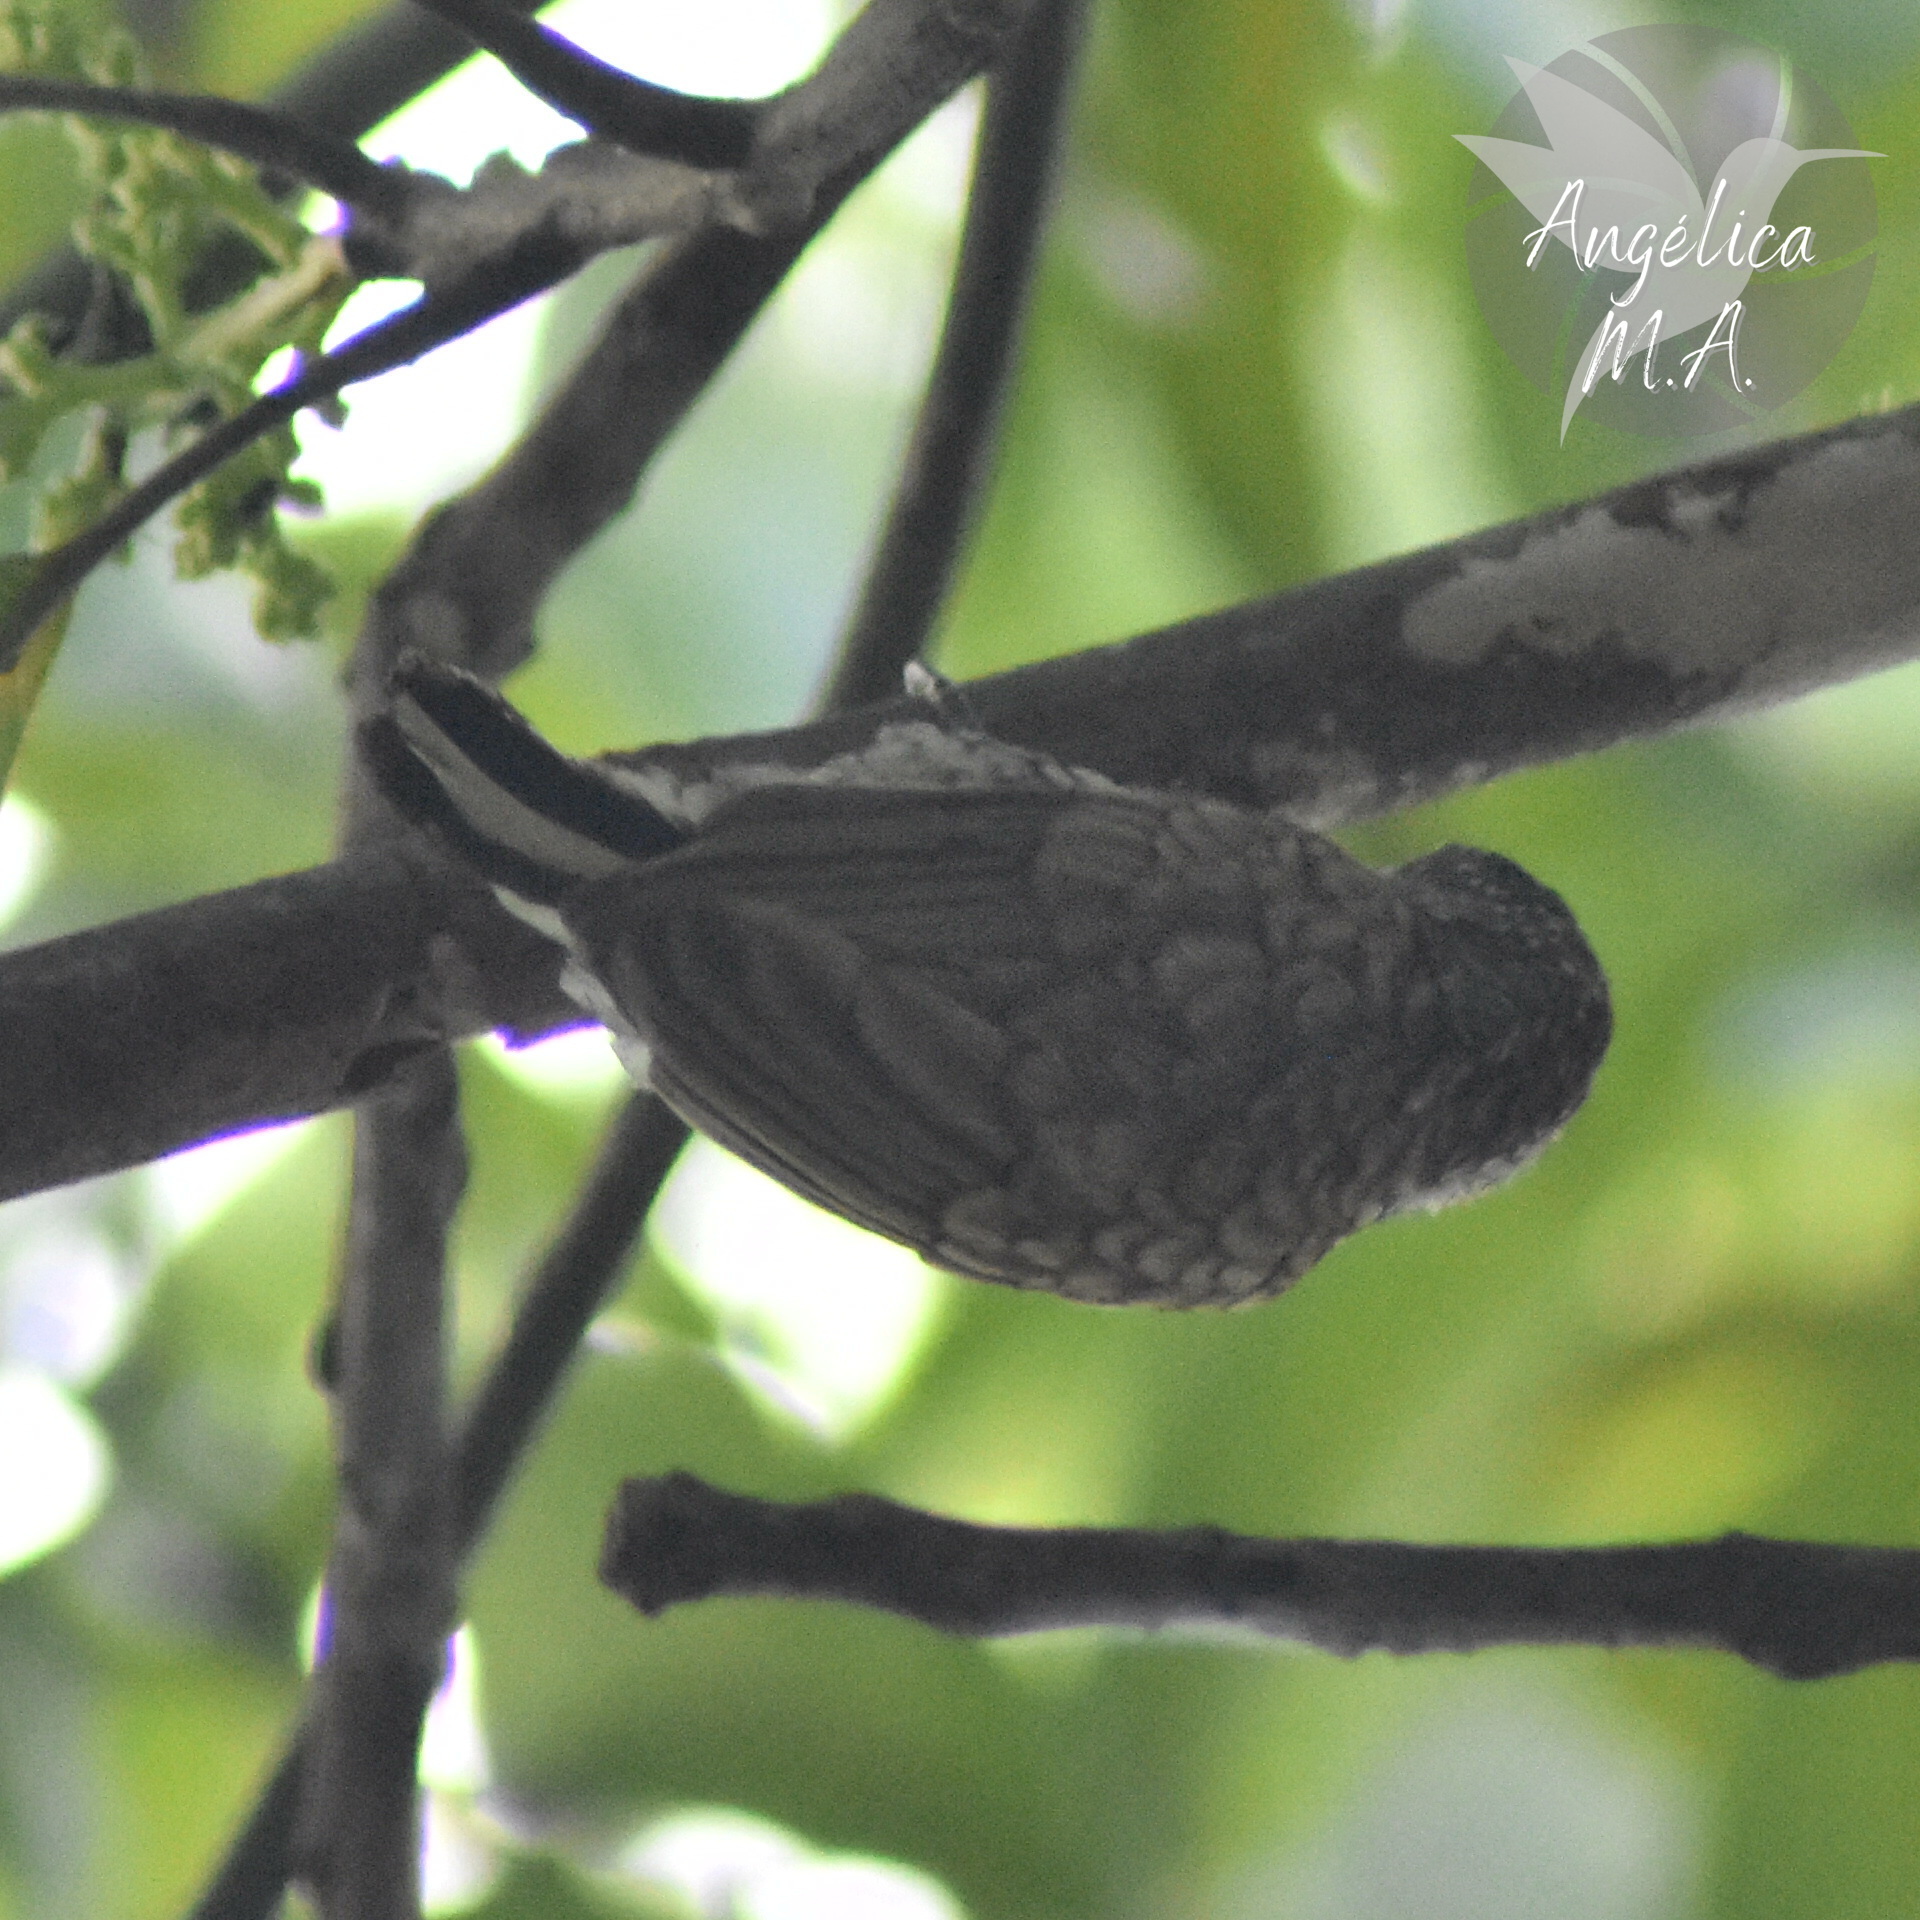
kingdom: Animalia
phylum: Chordata
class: Aves
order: Piciformes
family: Picidae
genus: Picumnus
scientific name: Picumnus squamulatus
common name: Scaled piculet
